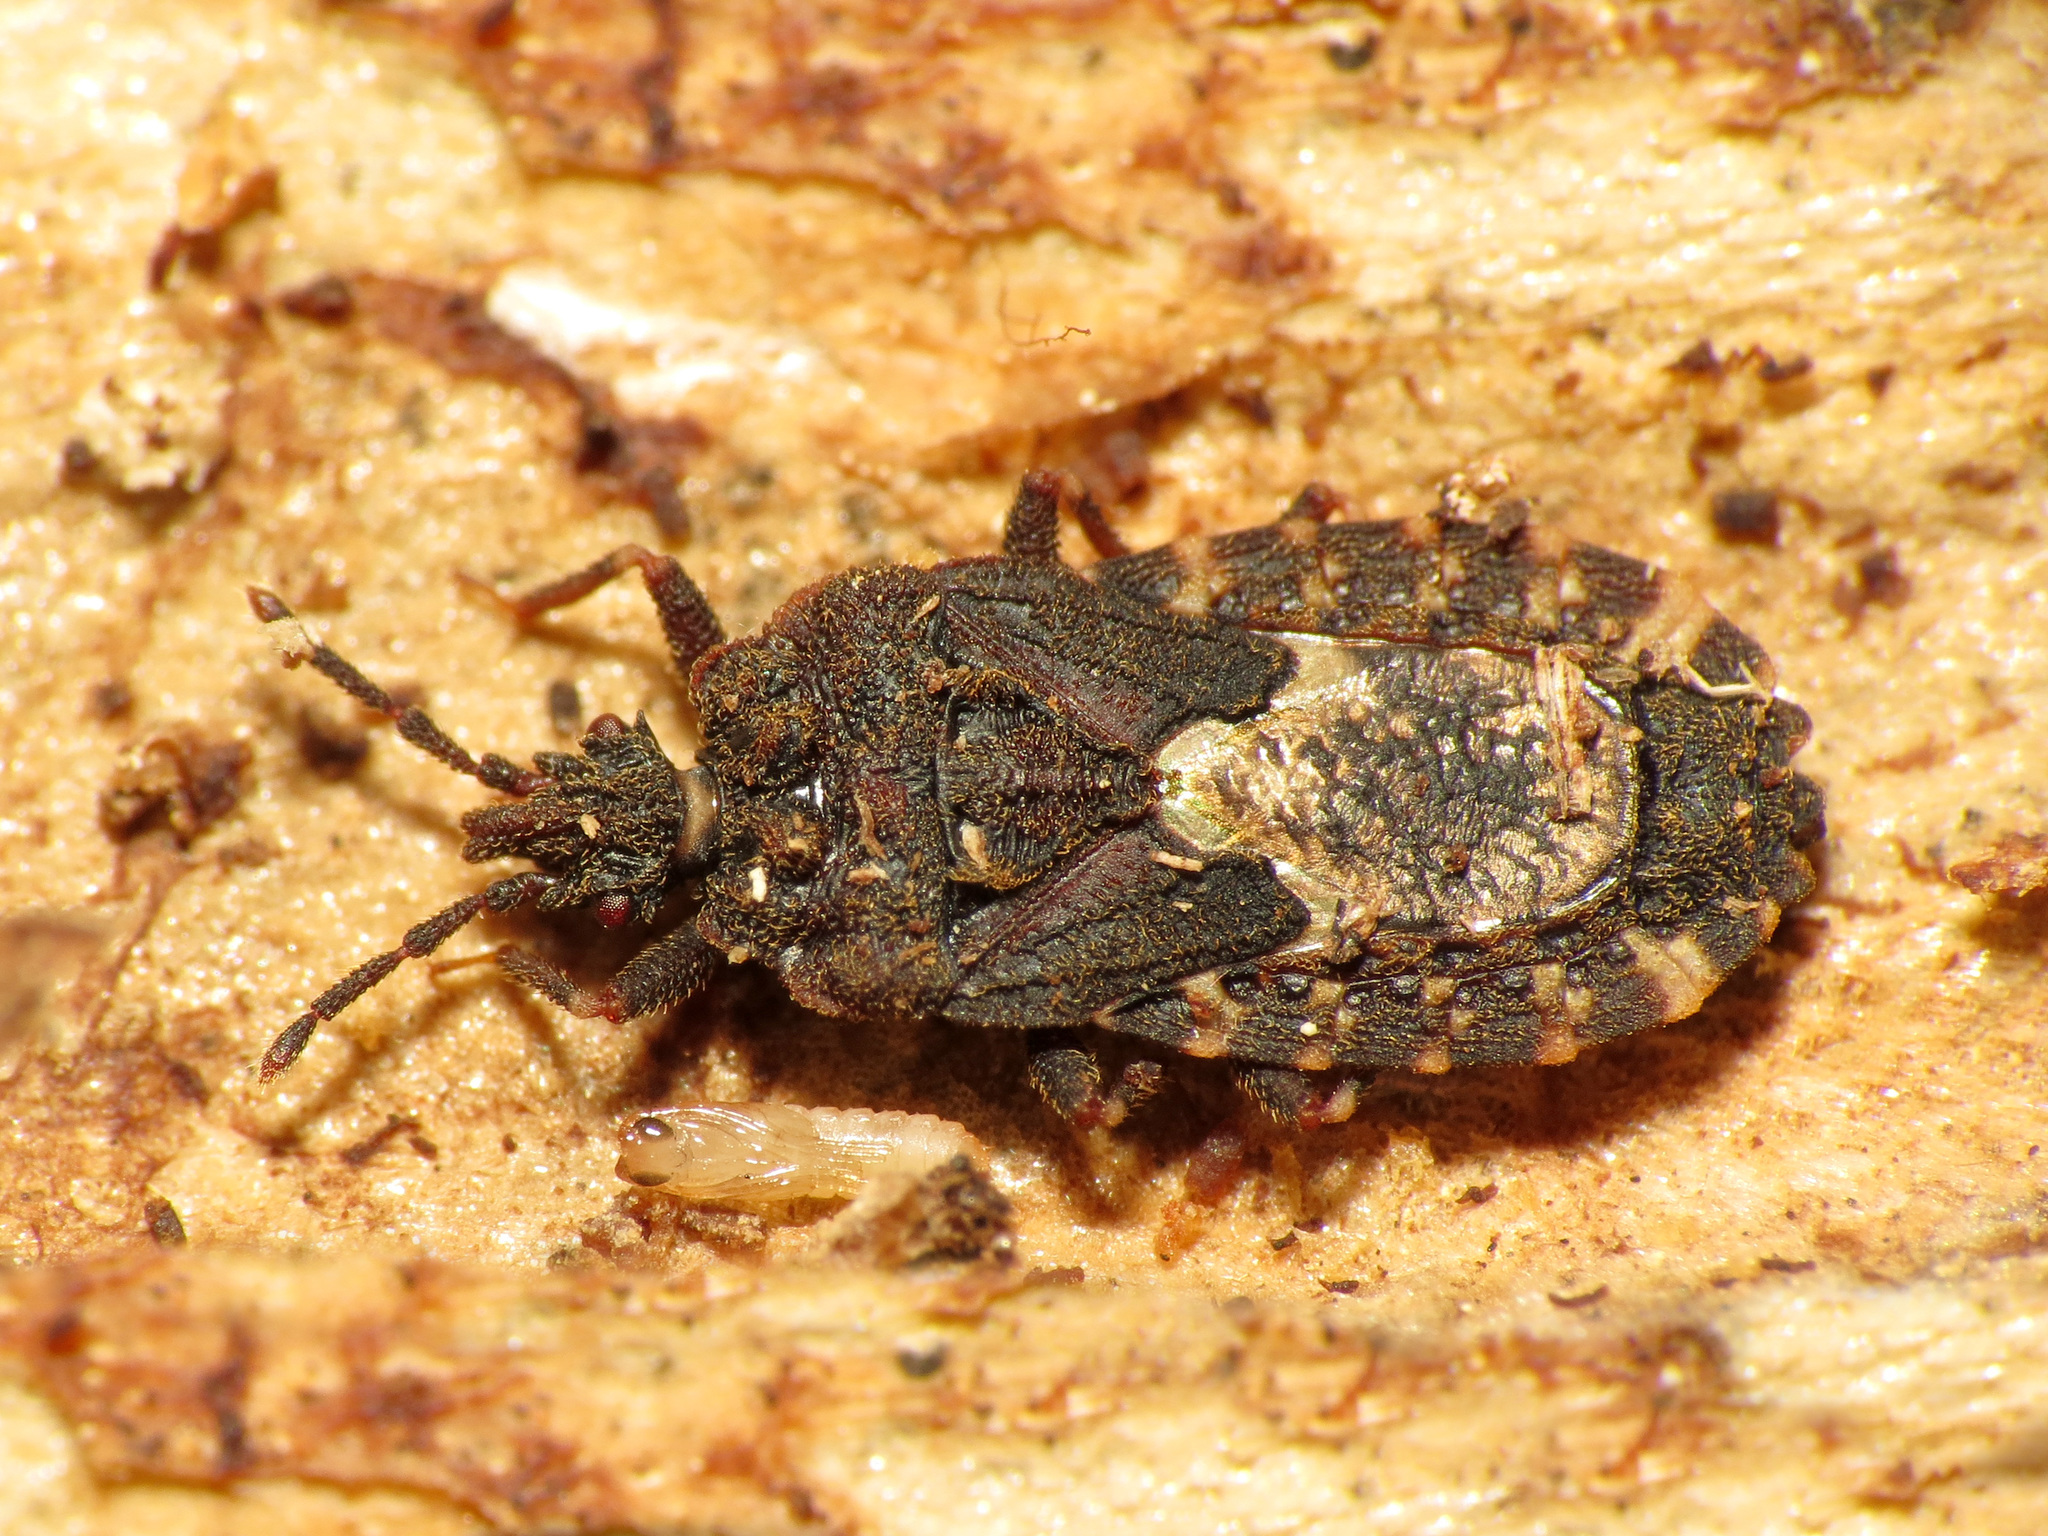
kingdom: Animalia
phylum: Arthropoda
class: Insecta
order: Hemiptera
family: Aradidae
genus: Mezira
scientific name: Mezira
